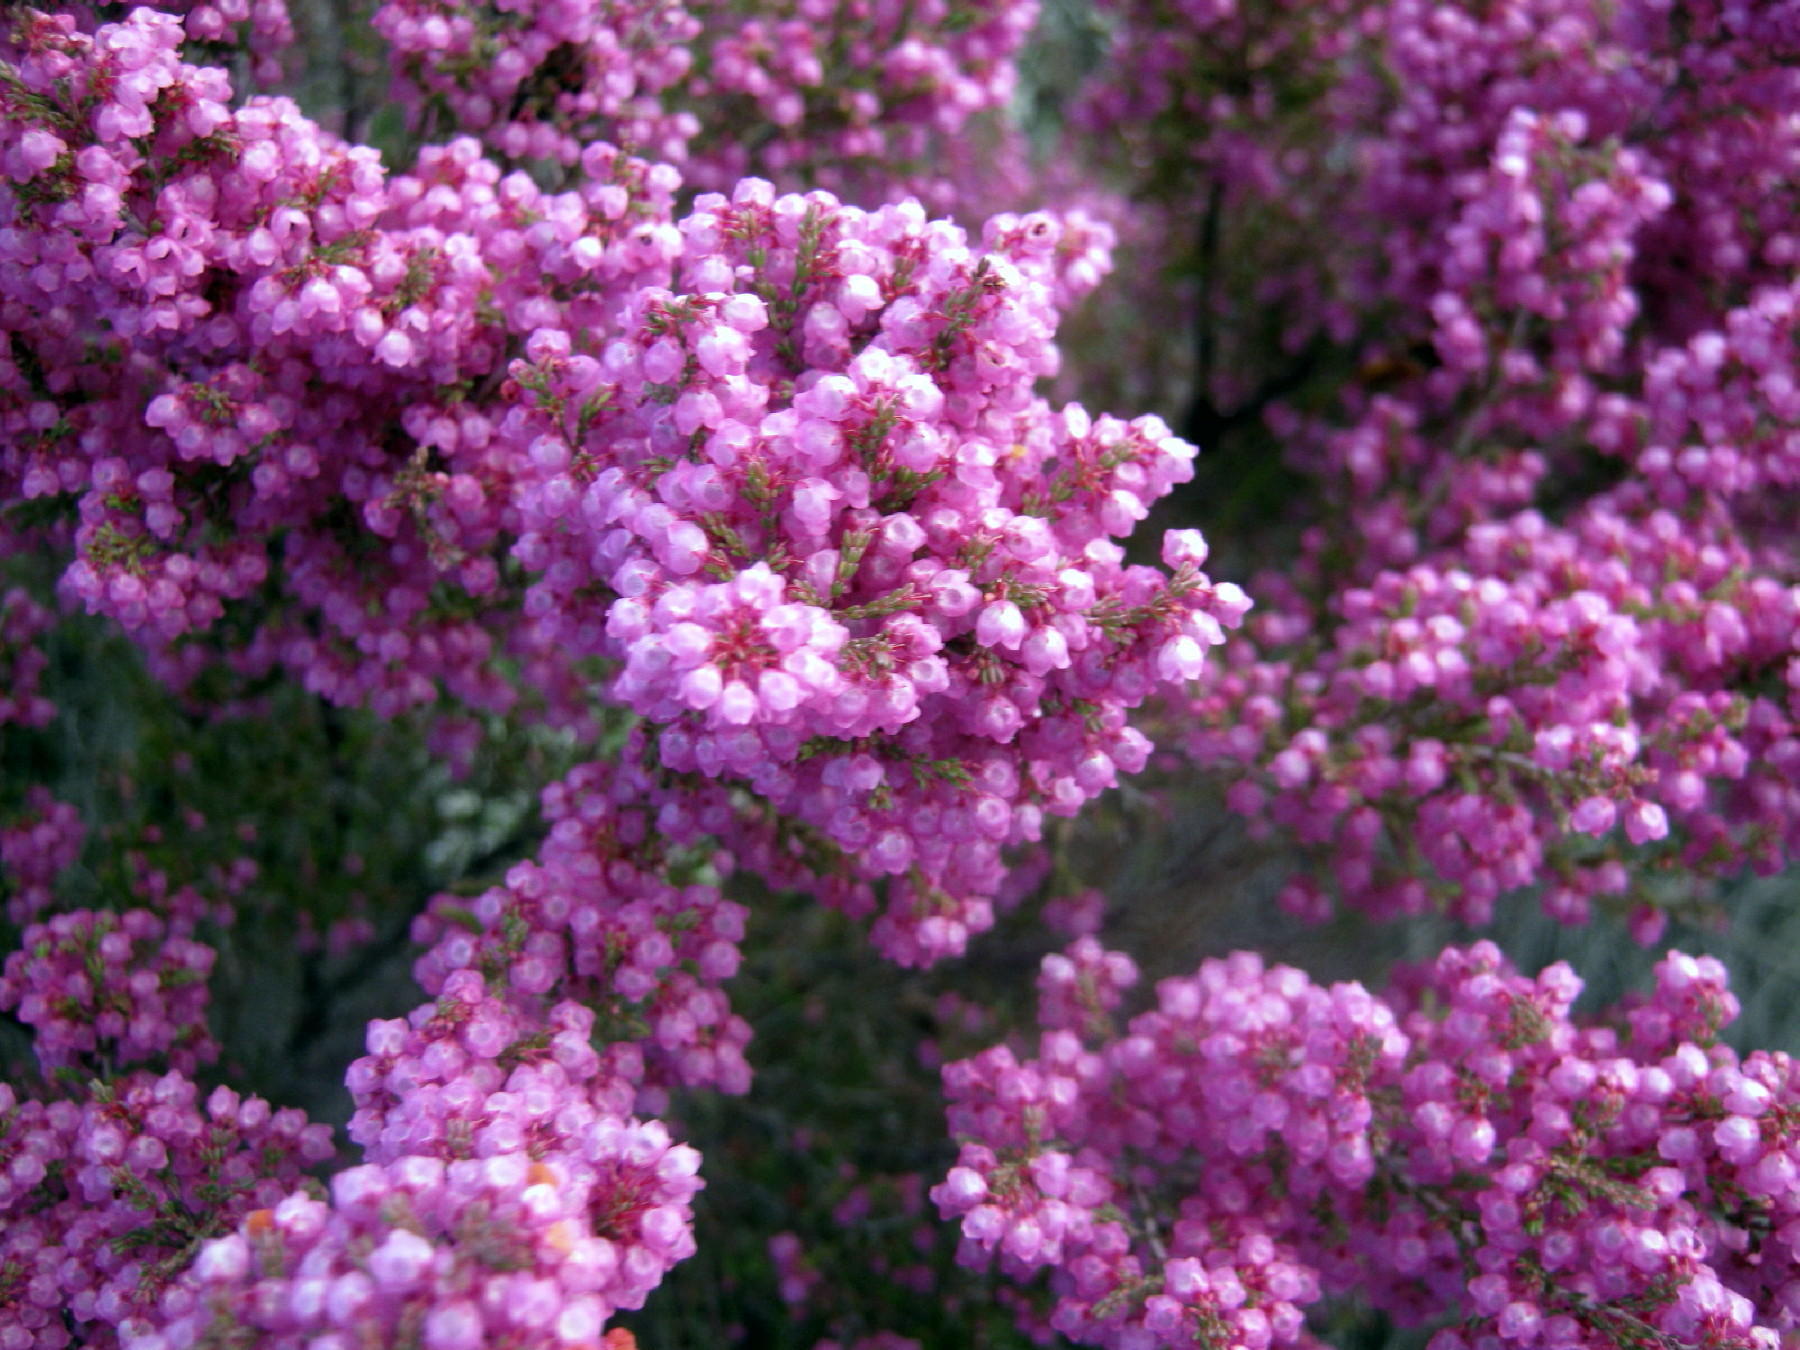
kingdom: Plantae
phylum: Tracheophyta
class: Magnoliopsida
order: Ericales
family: Ericaceae
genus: Erica
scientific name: Erica quadrangularis
